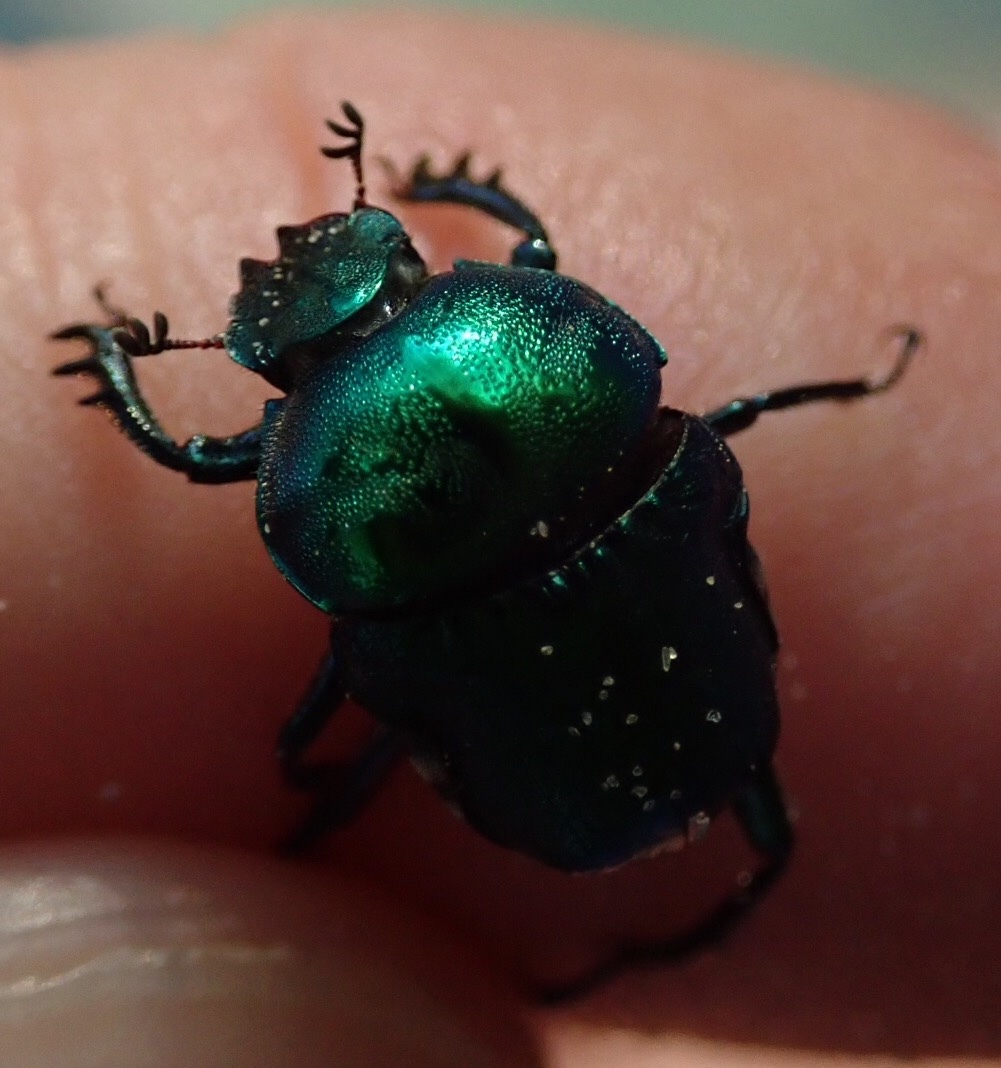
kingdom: Animalia
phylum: Arthropoda
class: Insecta
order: Coleoptera
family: Scarabaeidae
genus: Gymnopleurus
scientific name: Gymnopleurus virens
